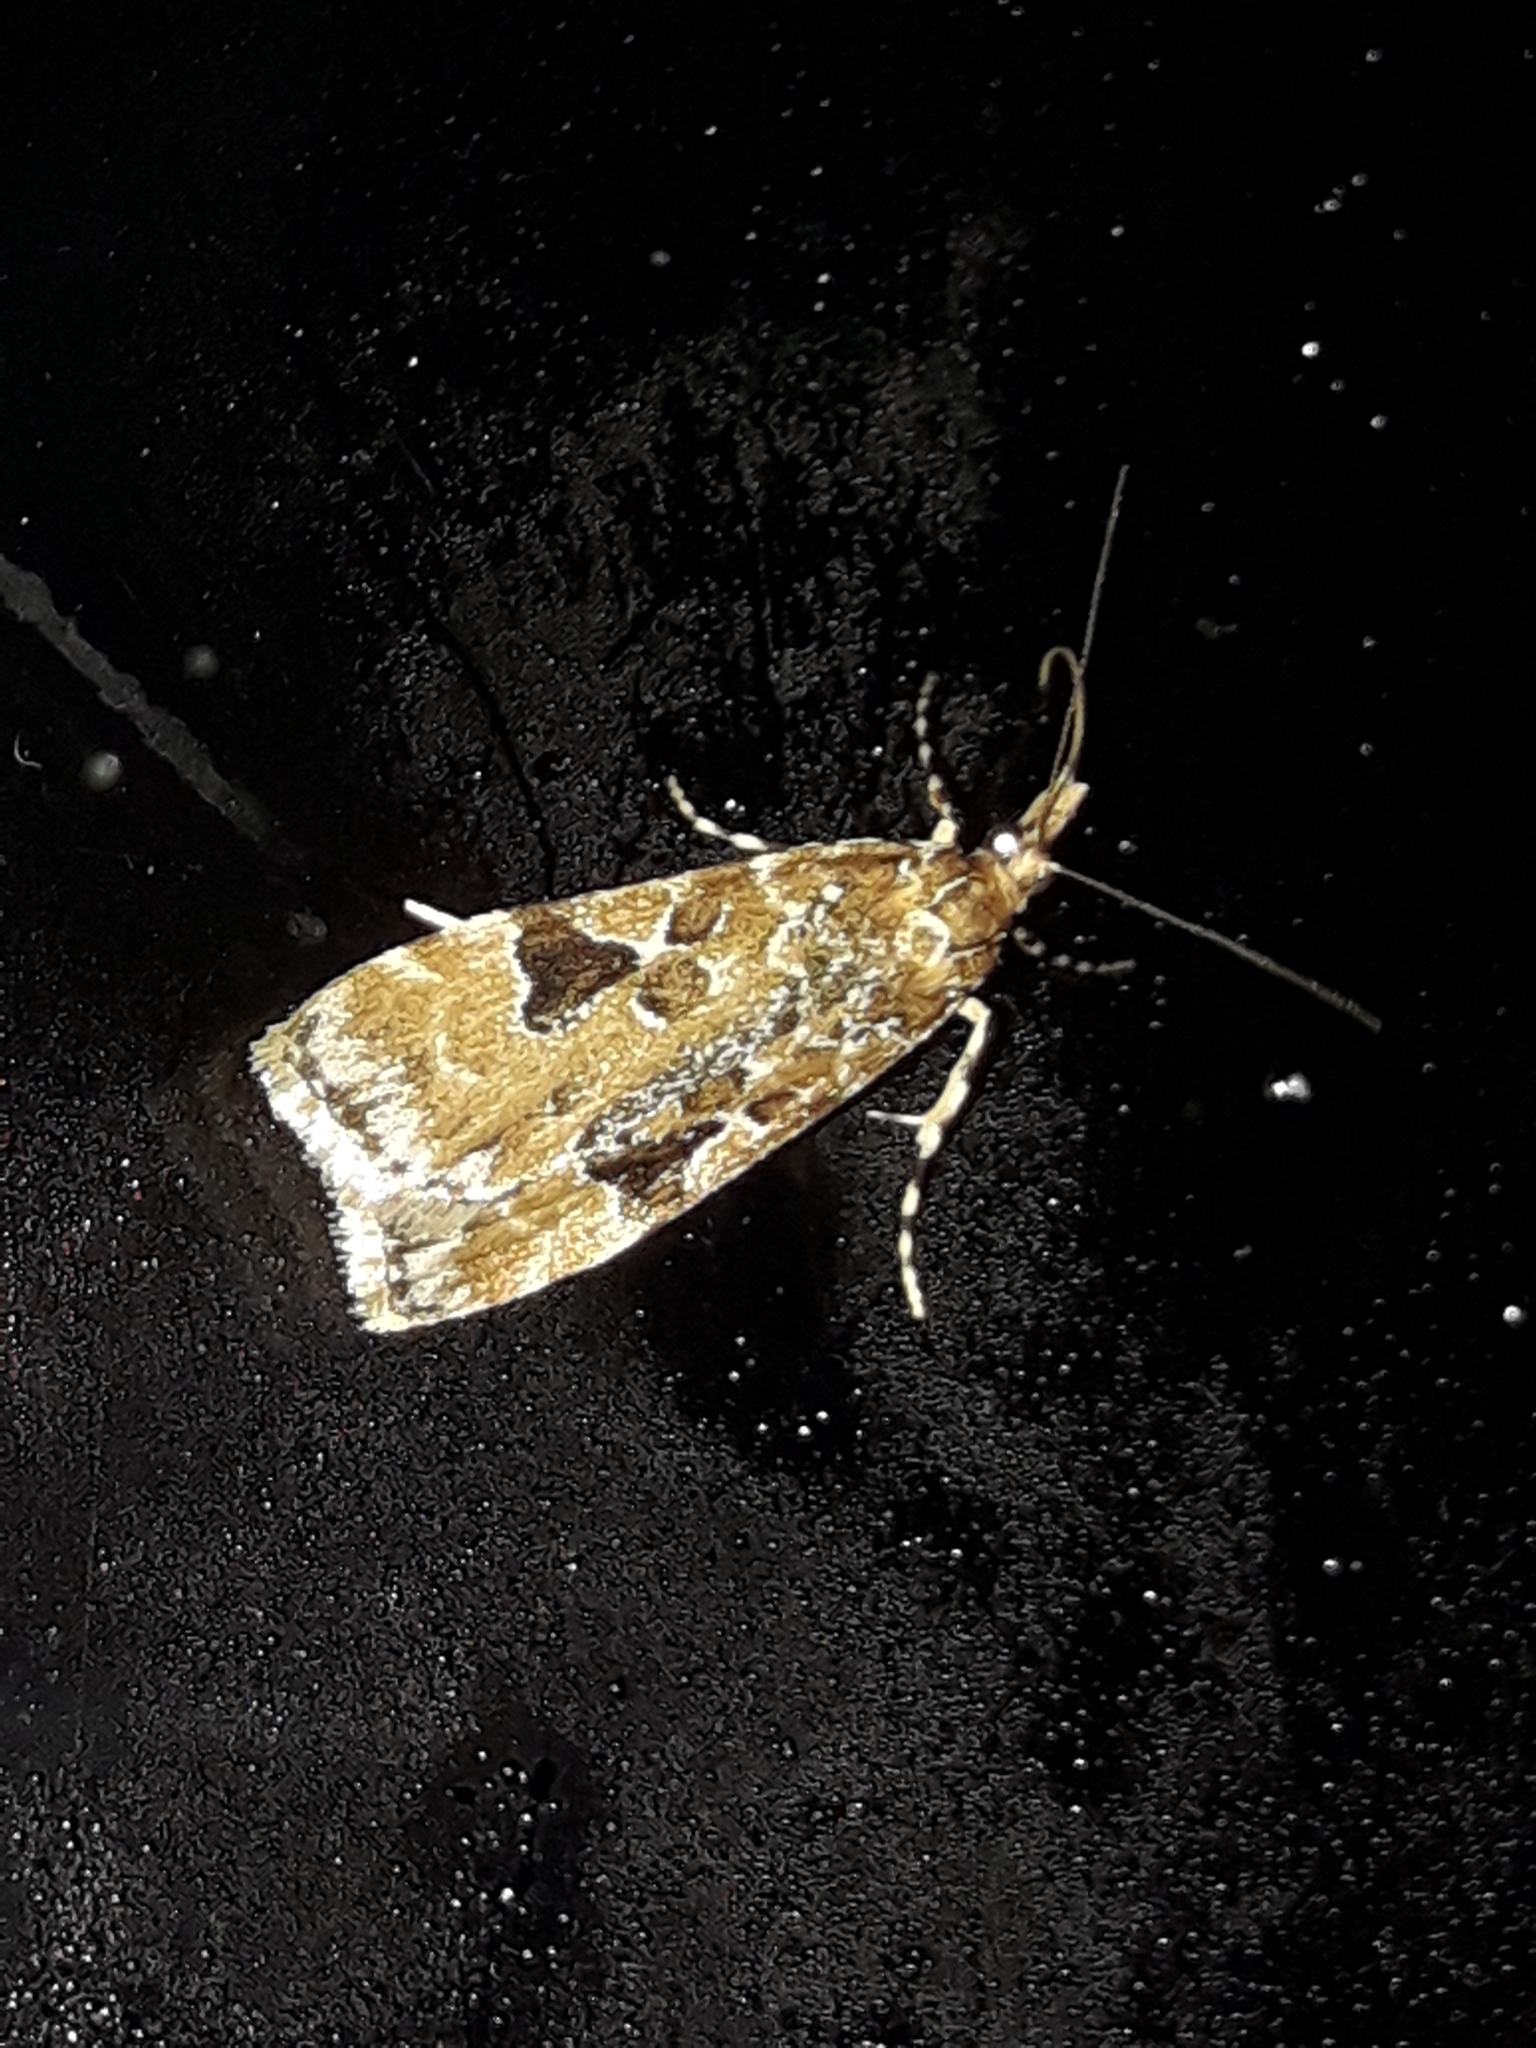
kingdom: Animalia
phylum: Arthropoda
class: Insecta
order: Lepidoptera
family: Crambidae
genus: Scoparia
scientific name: Scoparia ustimacula
